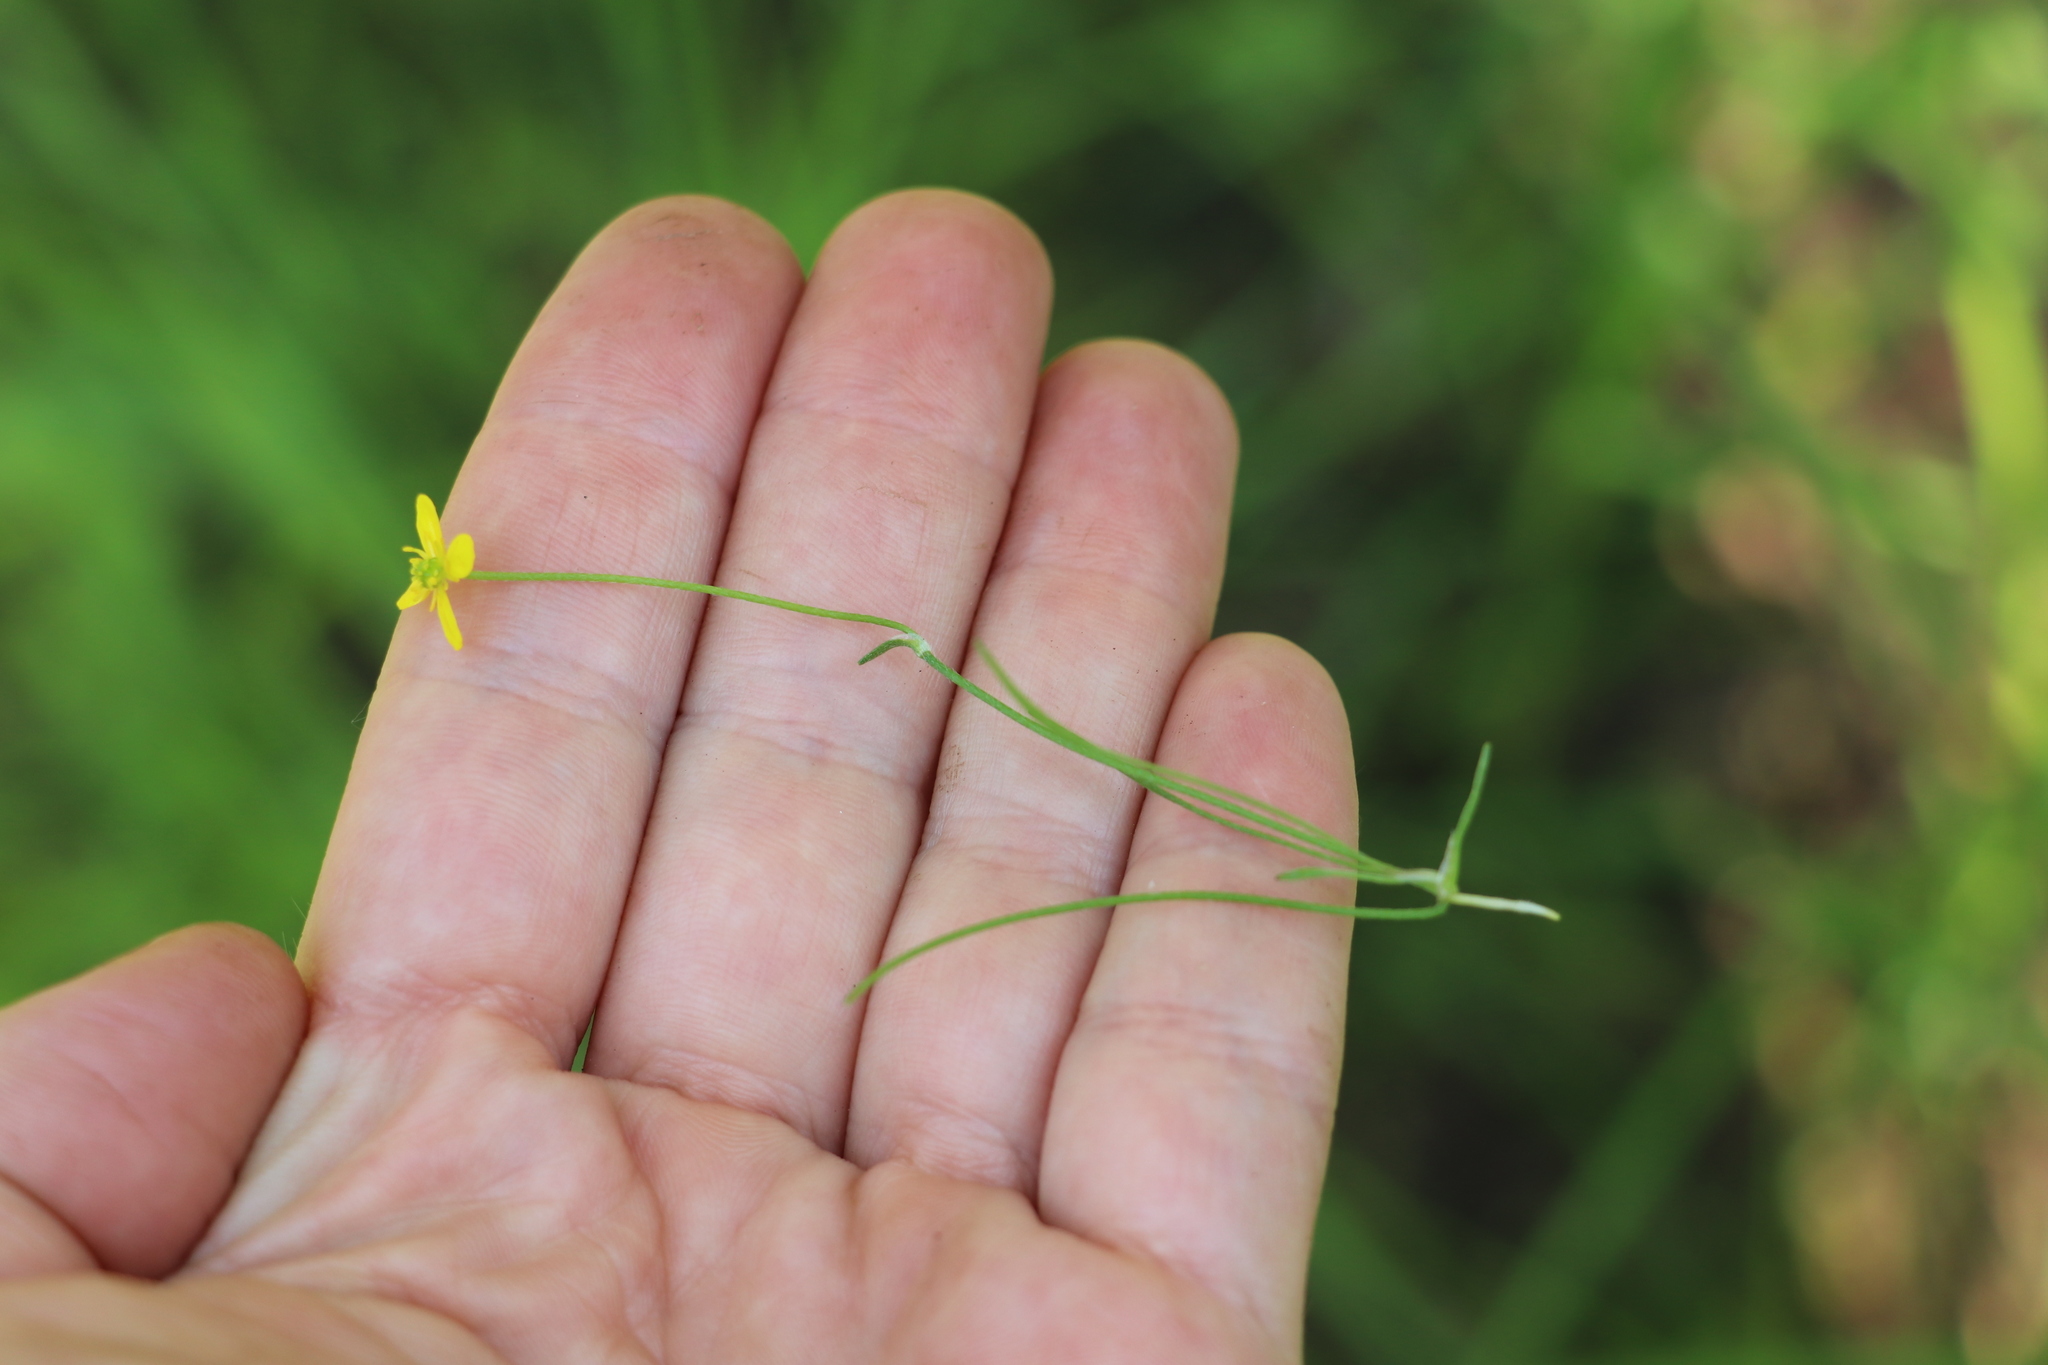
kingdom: Plantae
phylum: Tracheophyta
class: Magnoliopsida
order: Ranunculales
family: Ranunculaceae
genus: Ranunculus
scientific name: Ranunculus reptans
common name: Creeping spearwort
